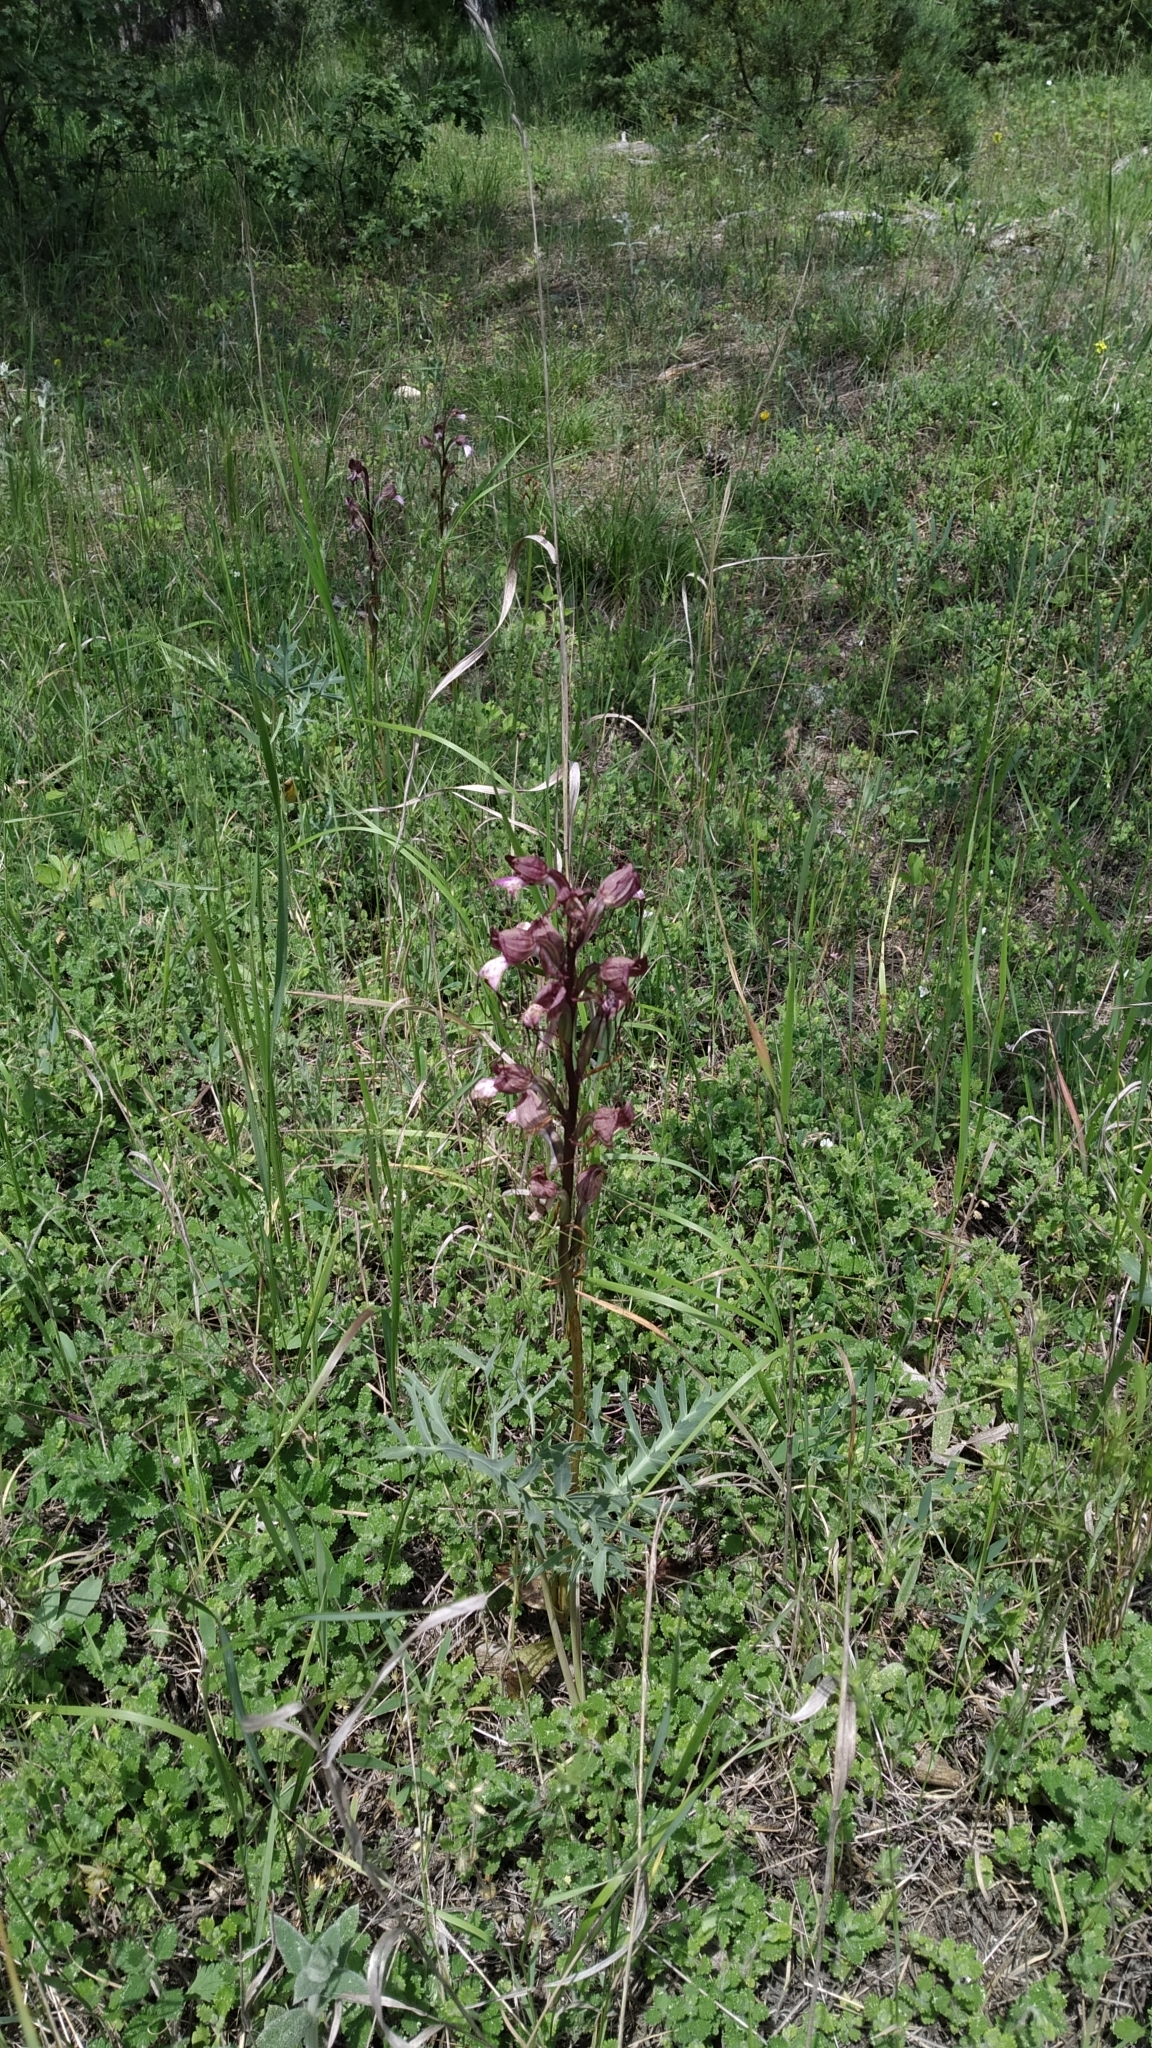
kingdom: Plantae
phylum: Tracheophyta
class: Liliopsida
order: Asparagales
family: Orchidaceae
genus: Himantoglossum
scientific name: Himantoglossum comperianum
